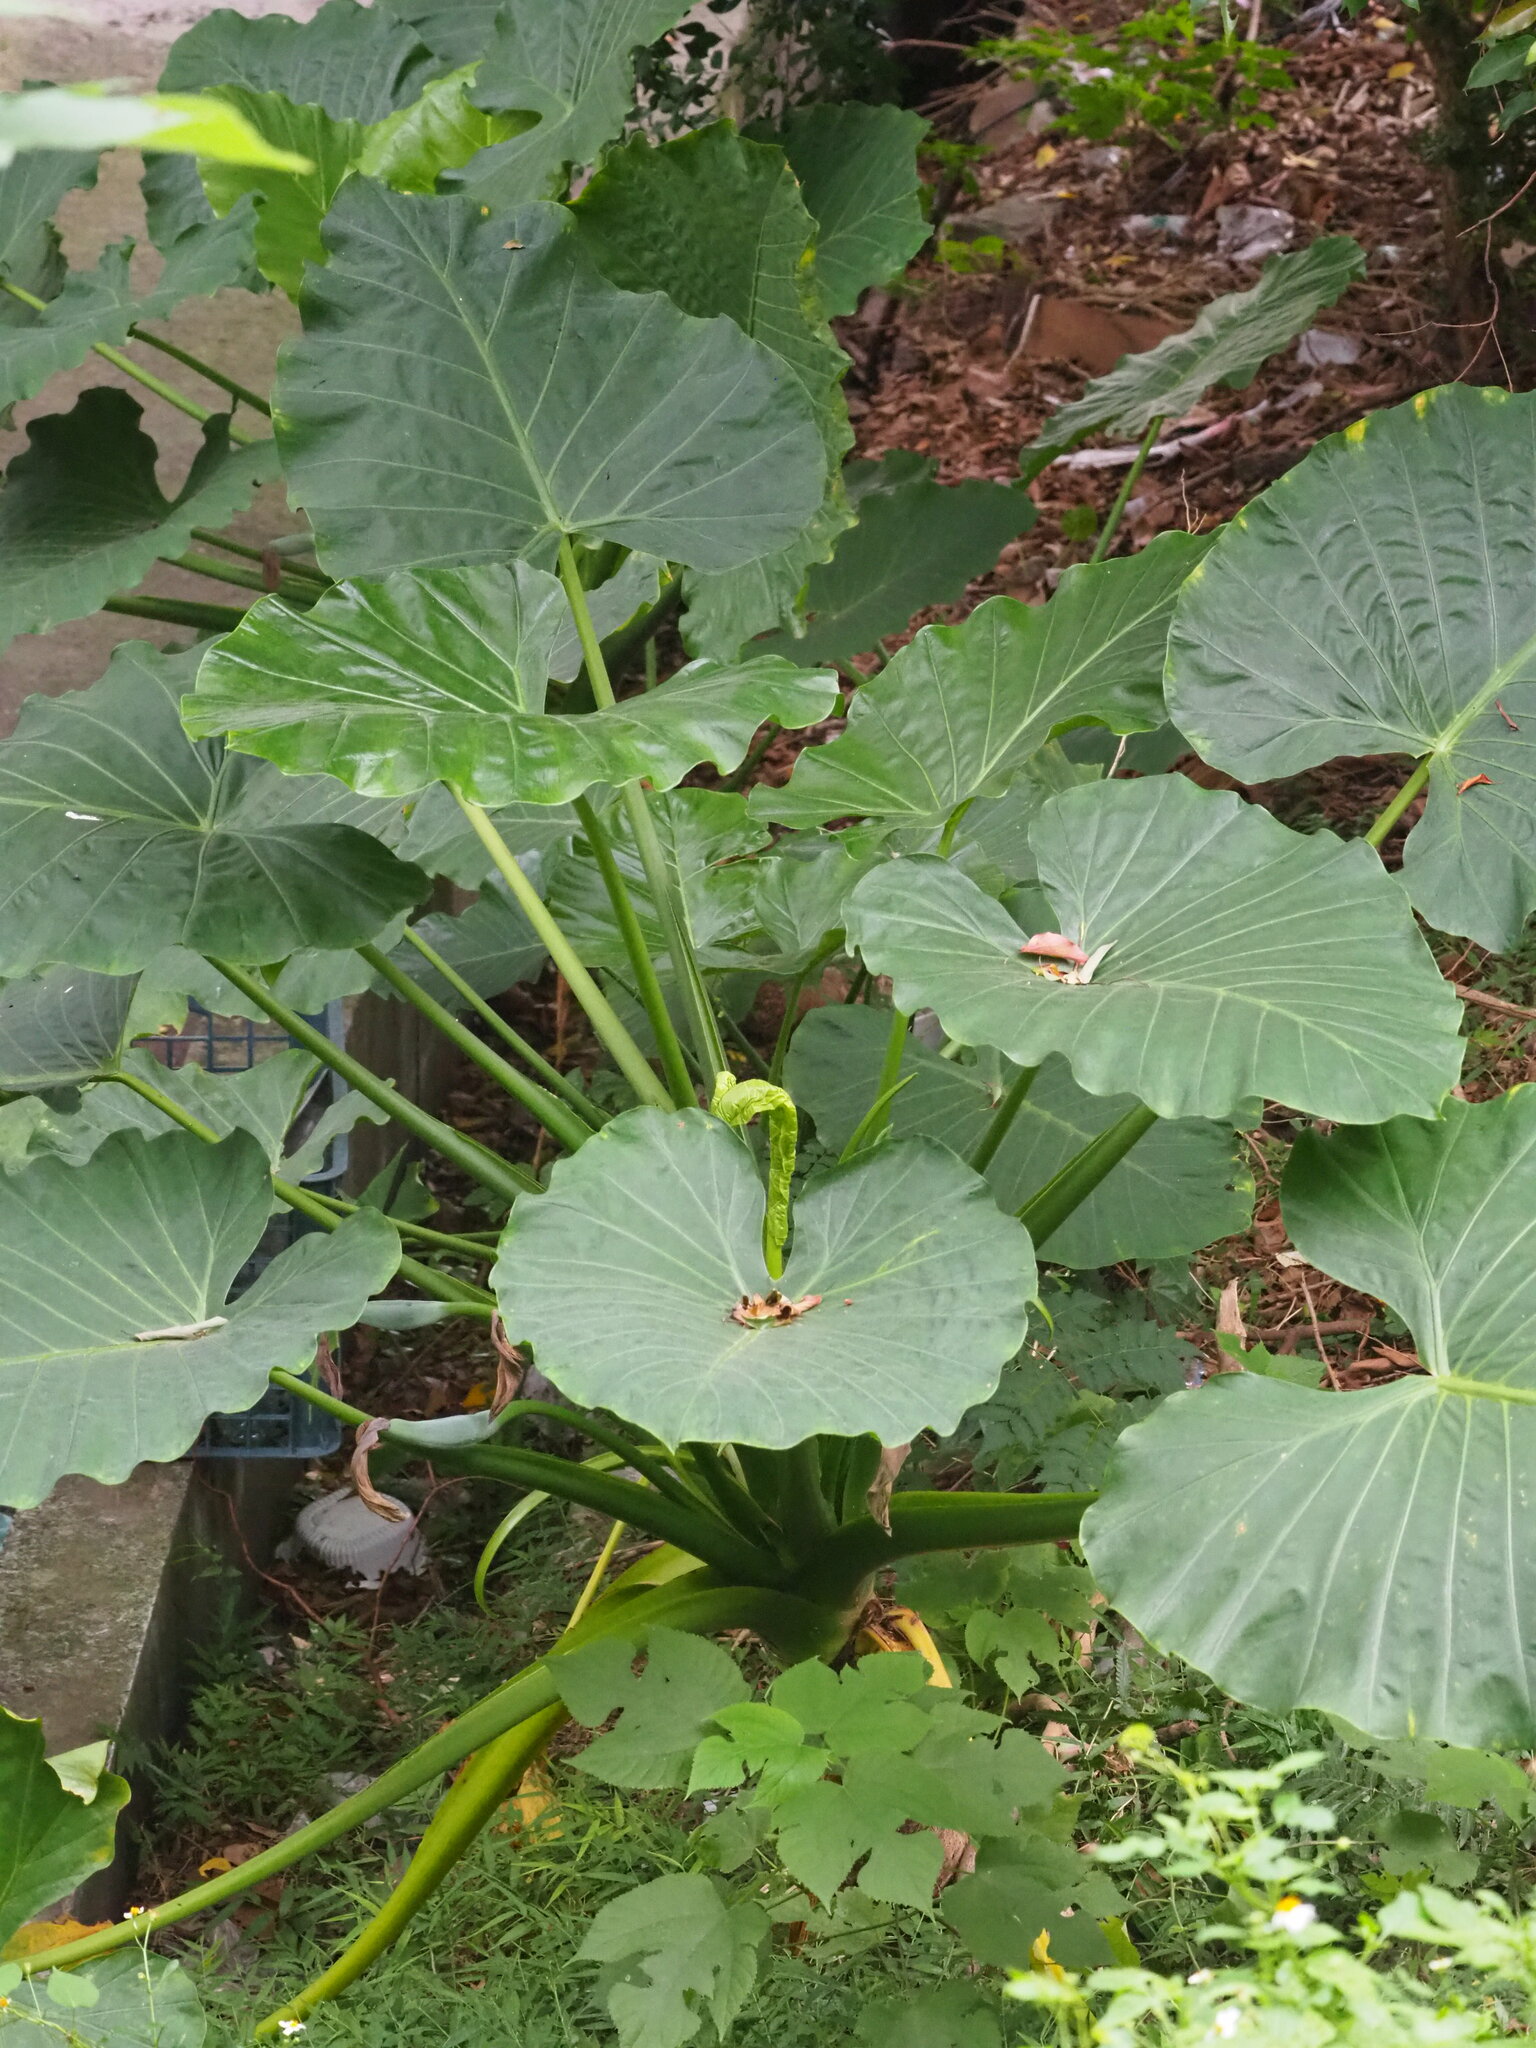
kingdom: Plantae
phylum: Tracheophyta
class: Liliopsida
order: Alismatales
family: Araceae
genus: Alocasia
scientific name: Alocasia odora
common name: Asian taro
